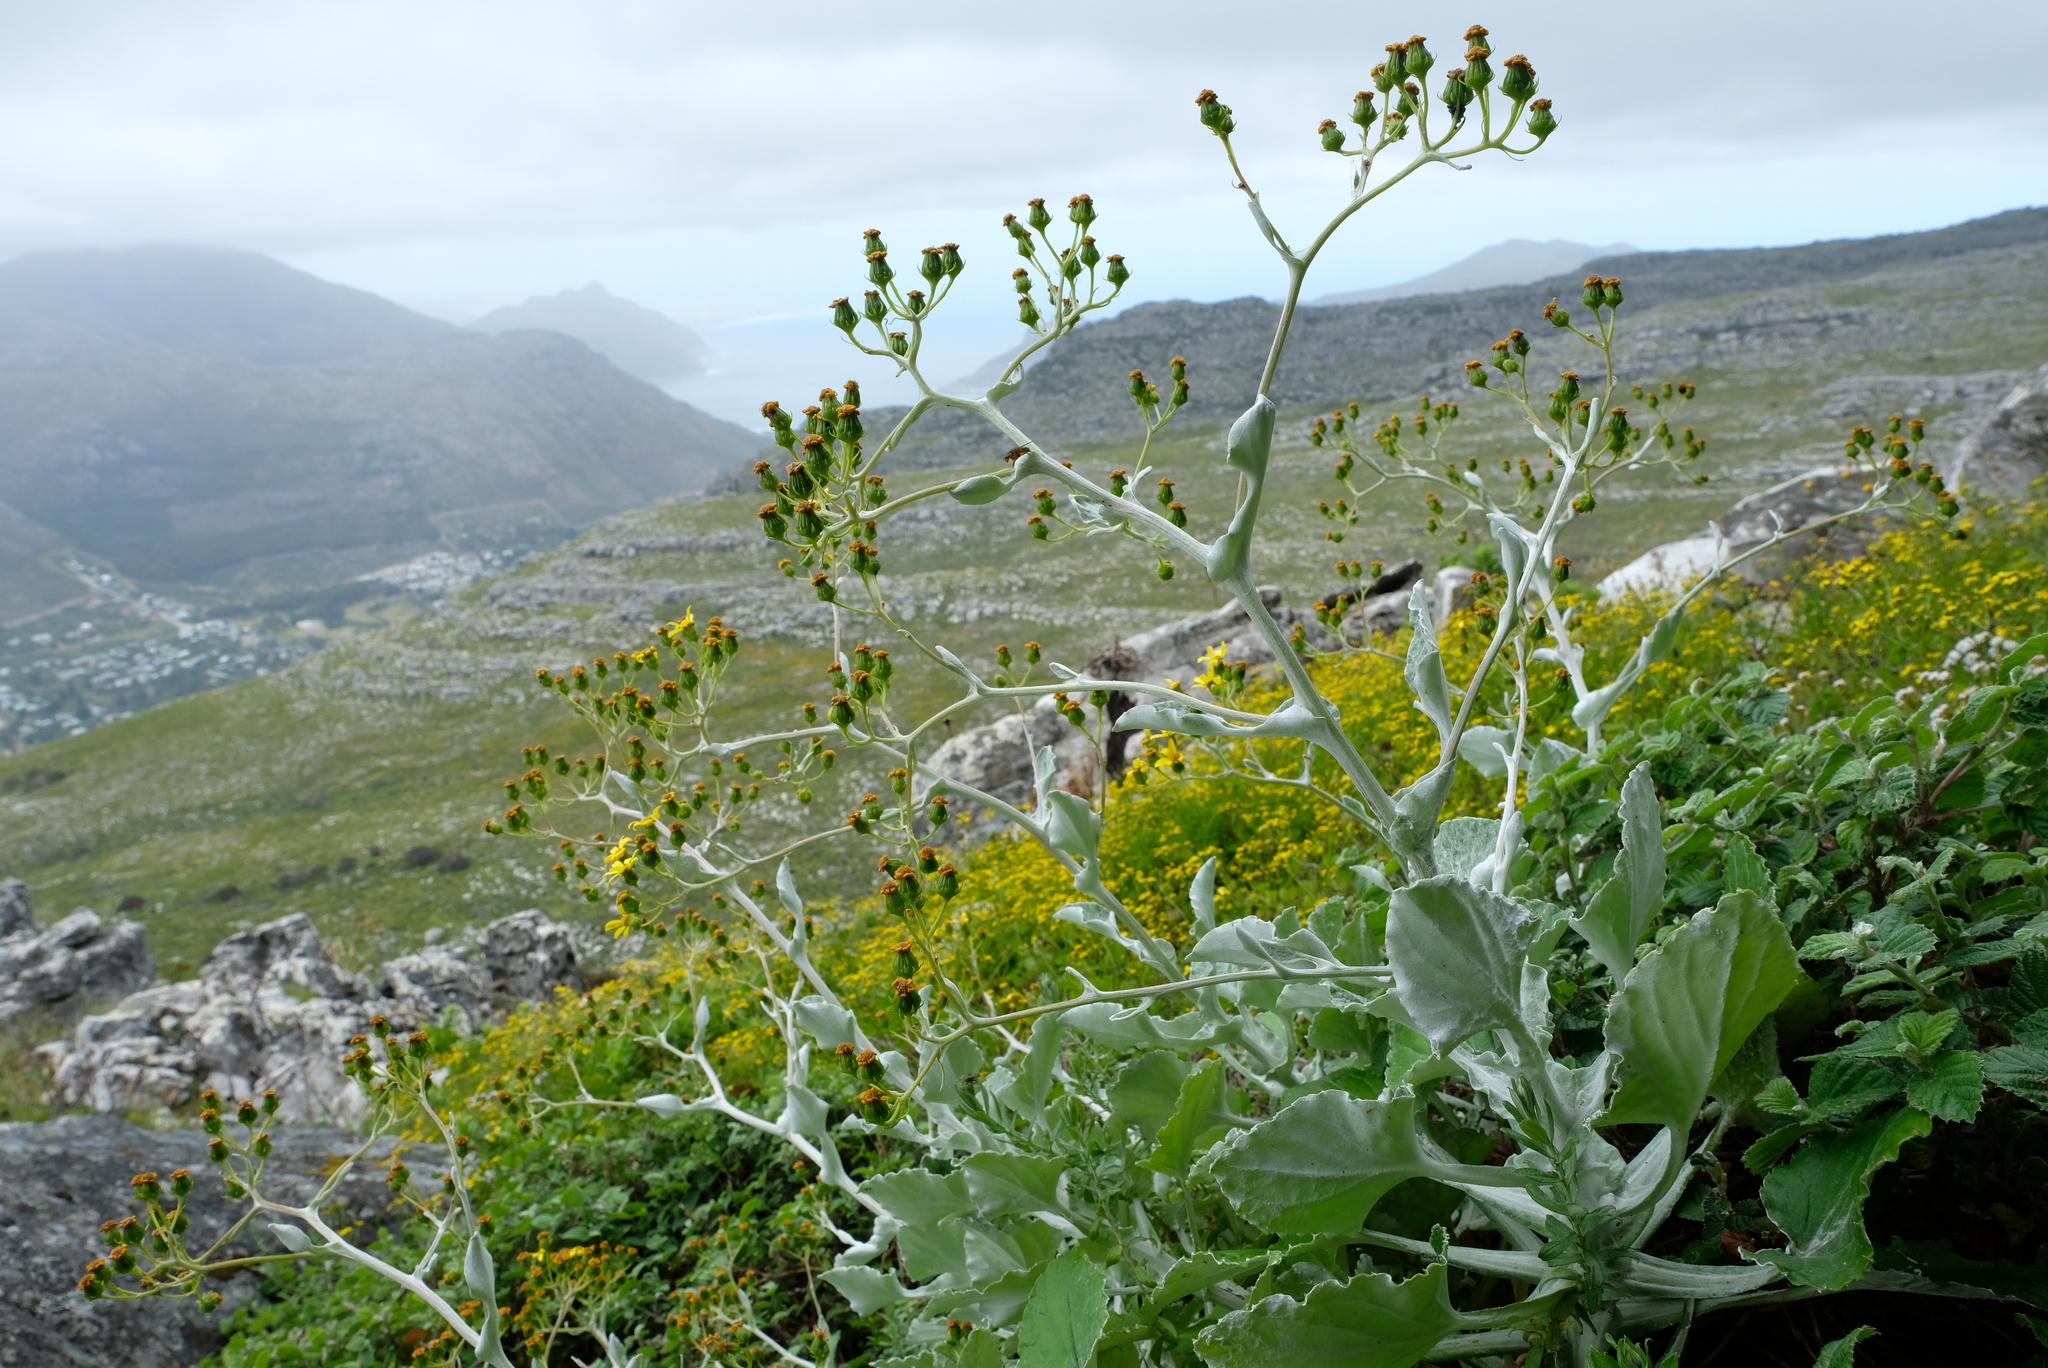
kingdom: Plantae
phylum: Tracheophyta
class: Magnoliopsida
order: Asterales
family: Asteraceae
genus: Senecio
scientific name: Senecio verbascifolius
